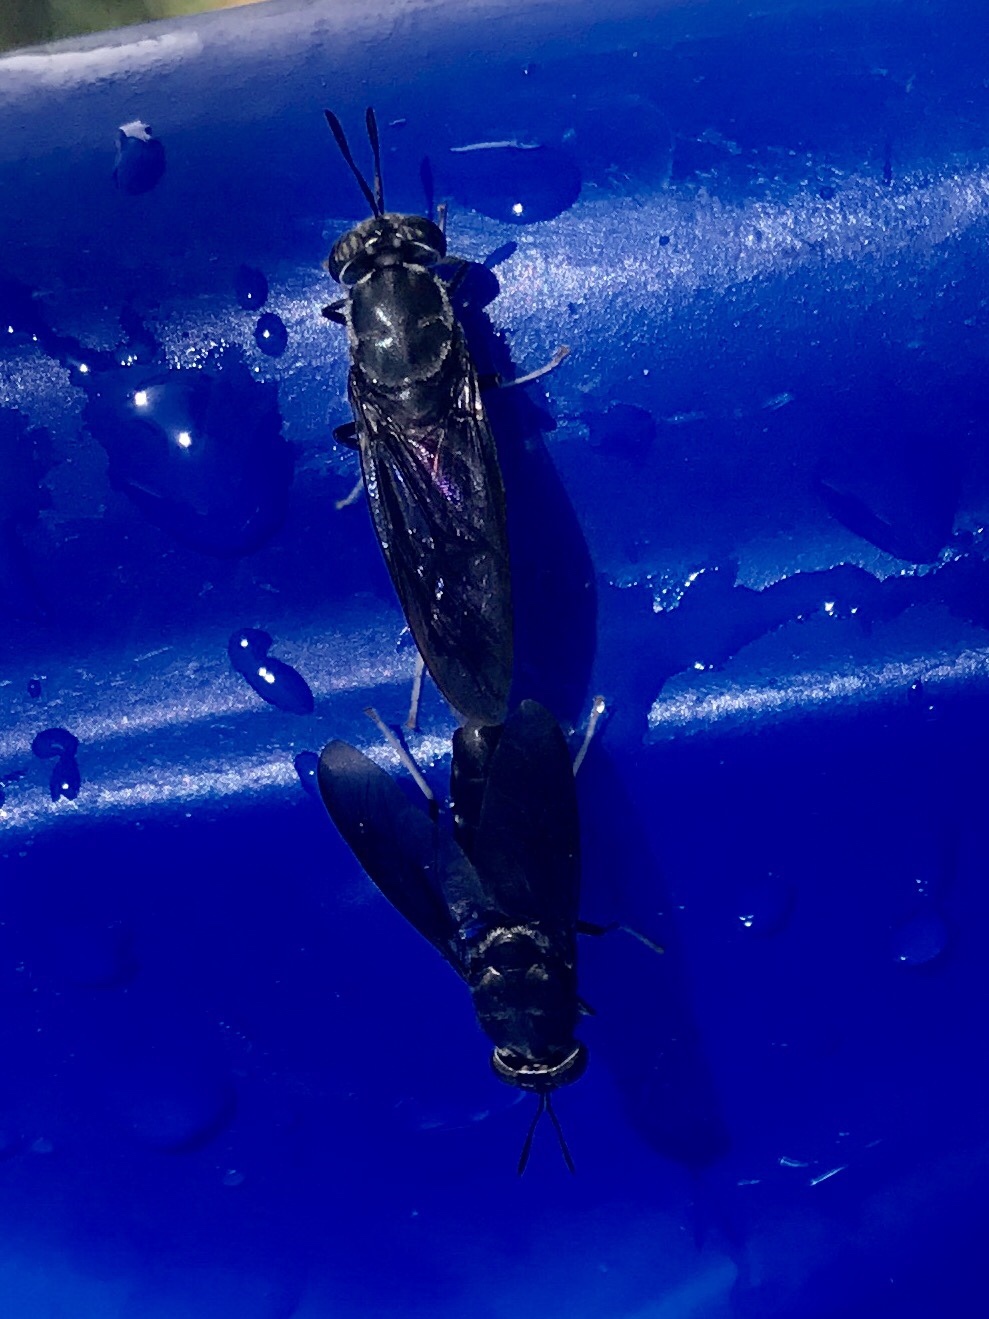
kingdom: Animalia
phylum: Arthropoda
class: Insecta
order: Diptera
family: Stratiomyidae
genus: Hermetia
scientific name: Hermetia illucens
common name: Black soldier fly
